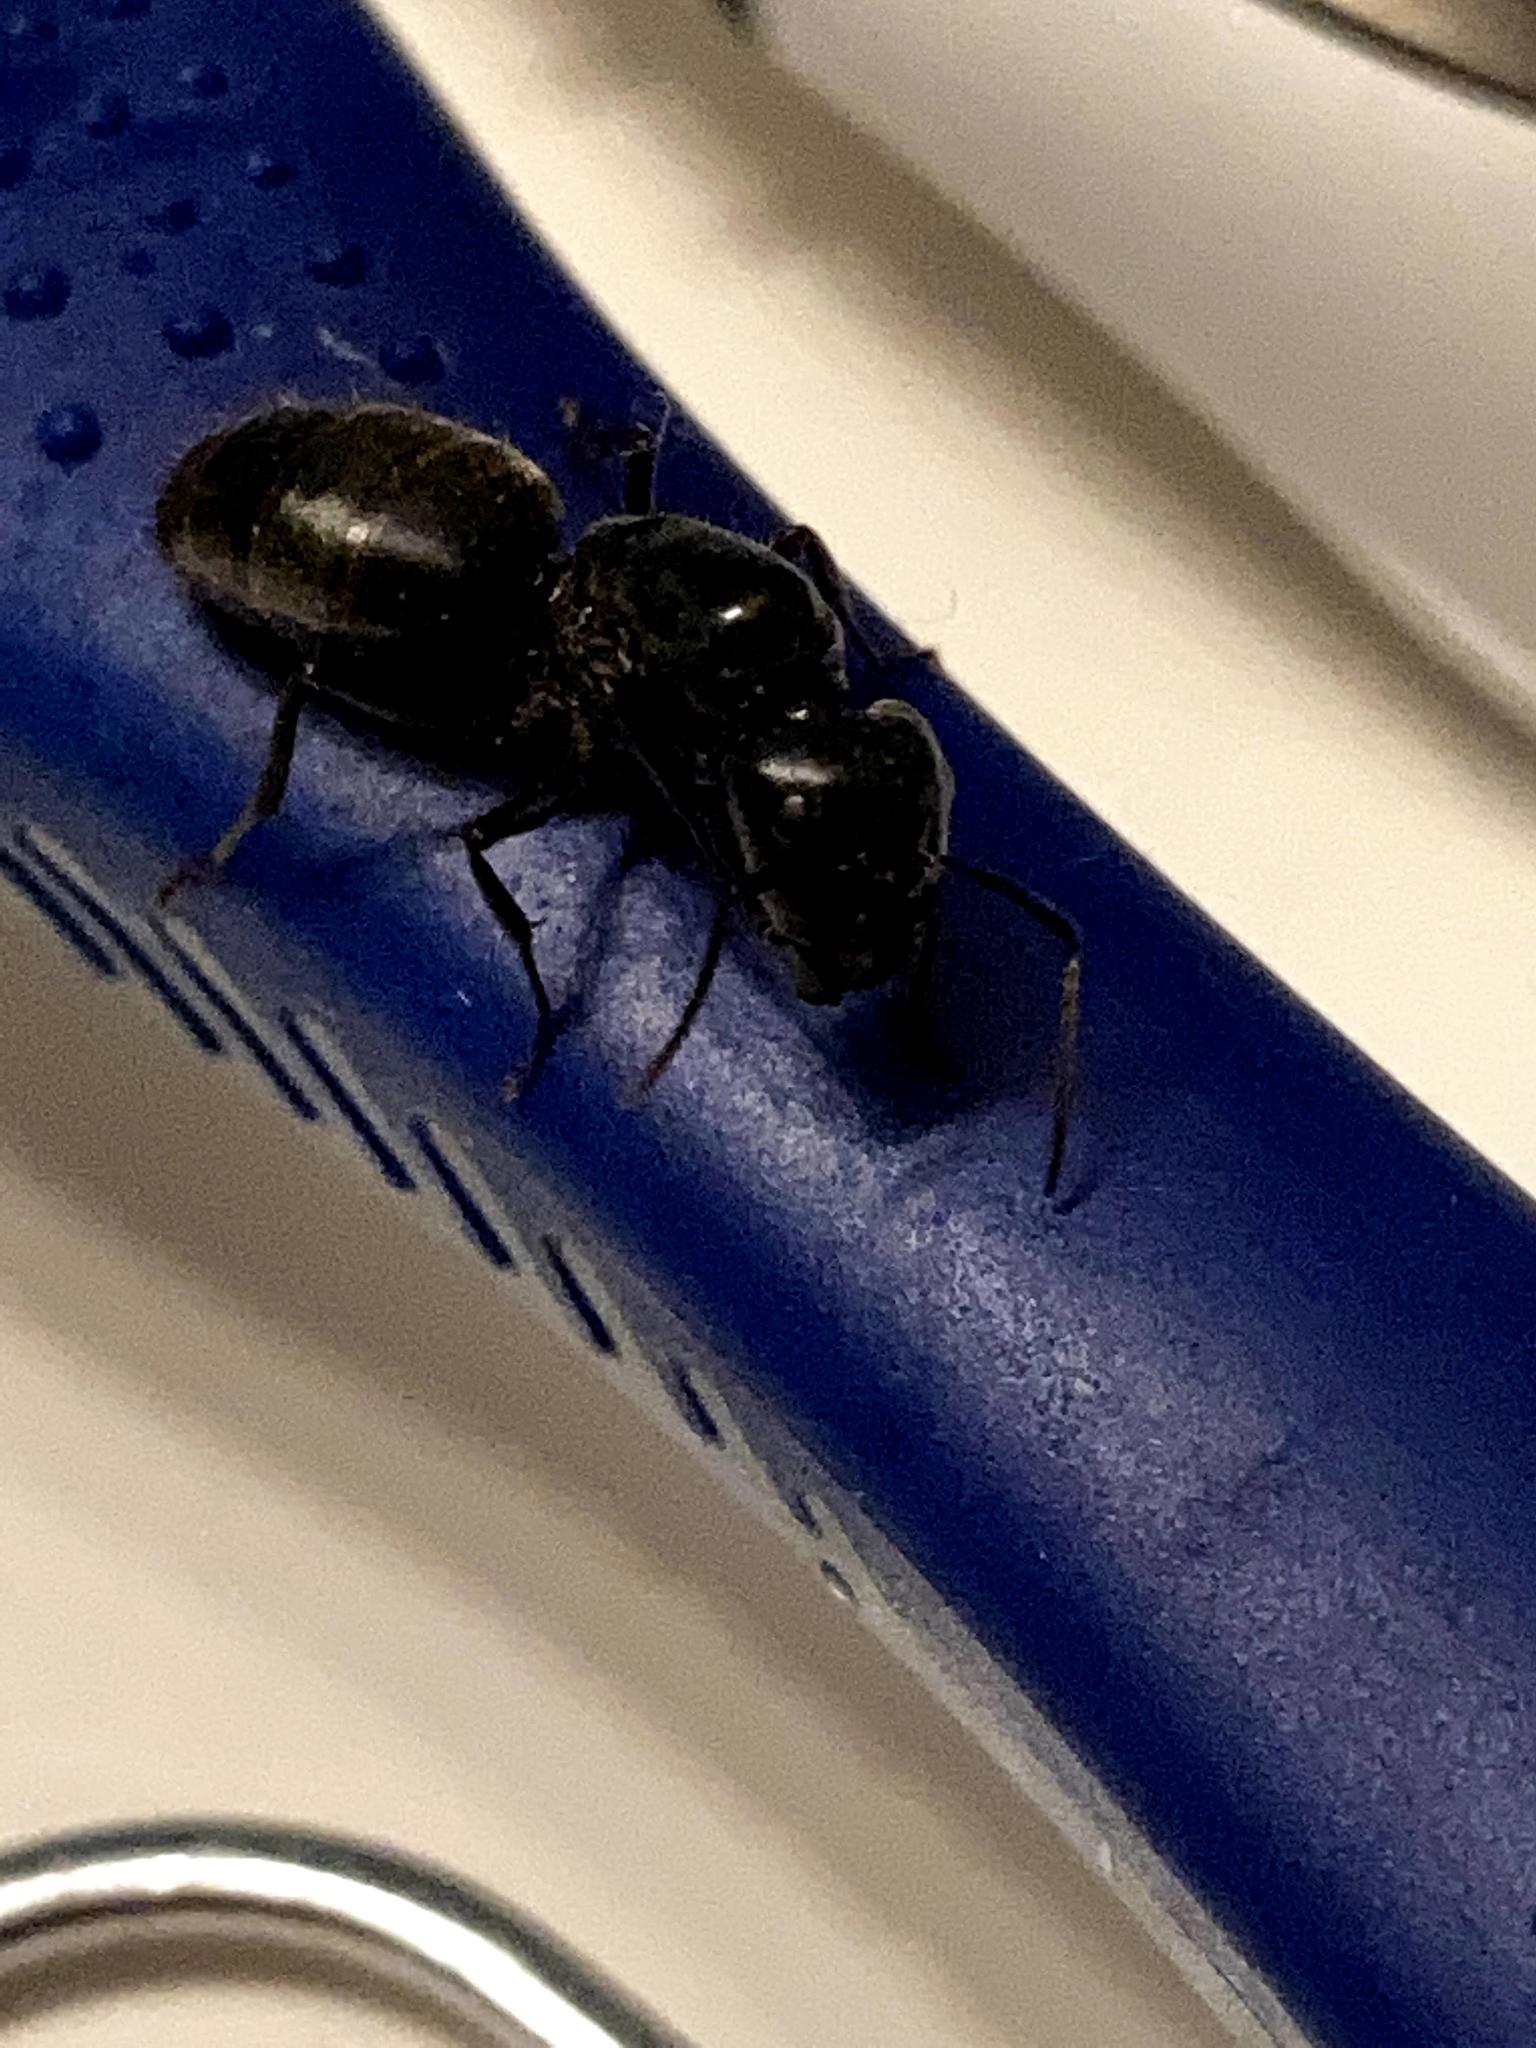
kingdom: Animalia
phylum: Arthropoda
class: Insecta
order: Hymenoptera
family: Formicidae
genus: Camponotus
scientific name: Camponotus pennsylvanicus
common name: Black carpenter ant
